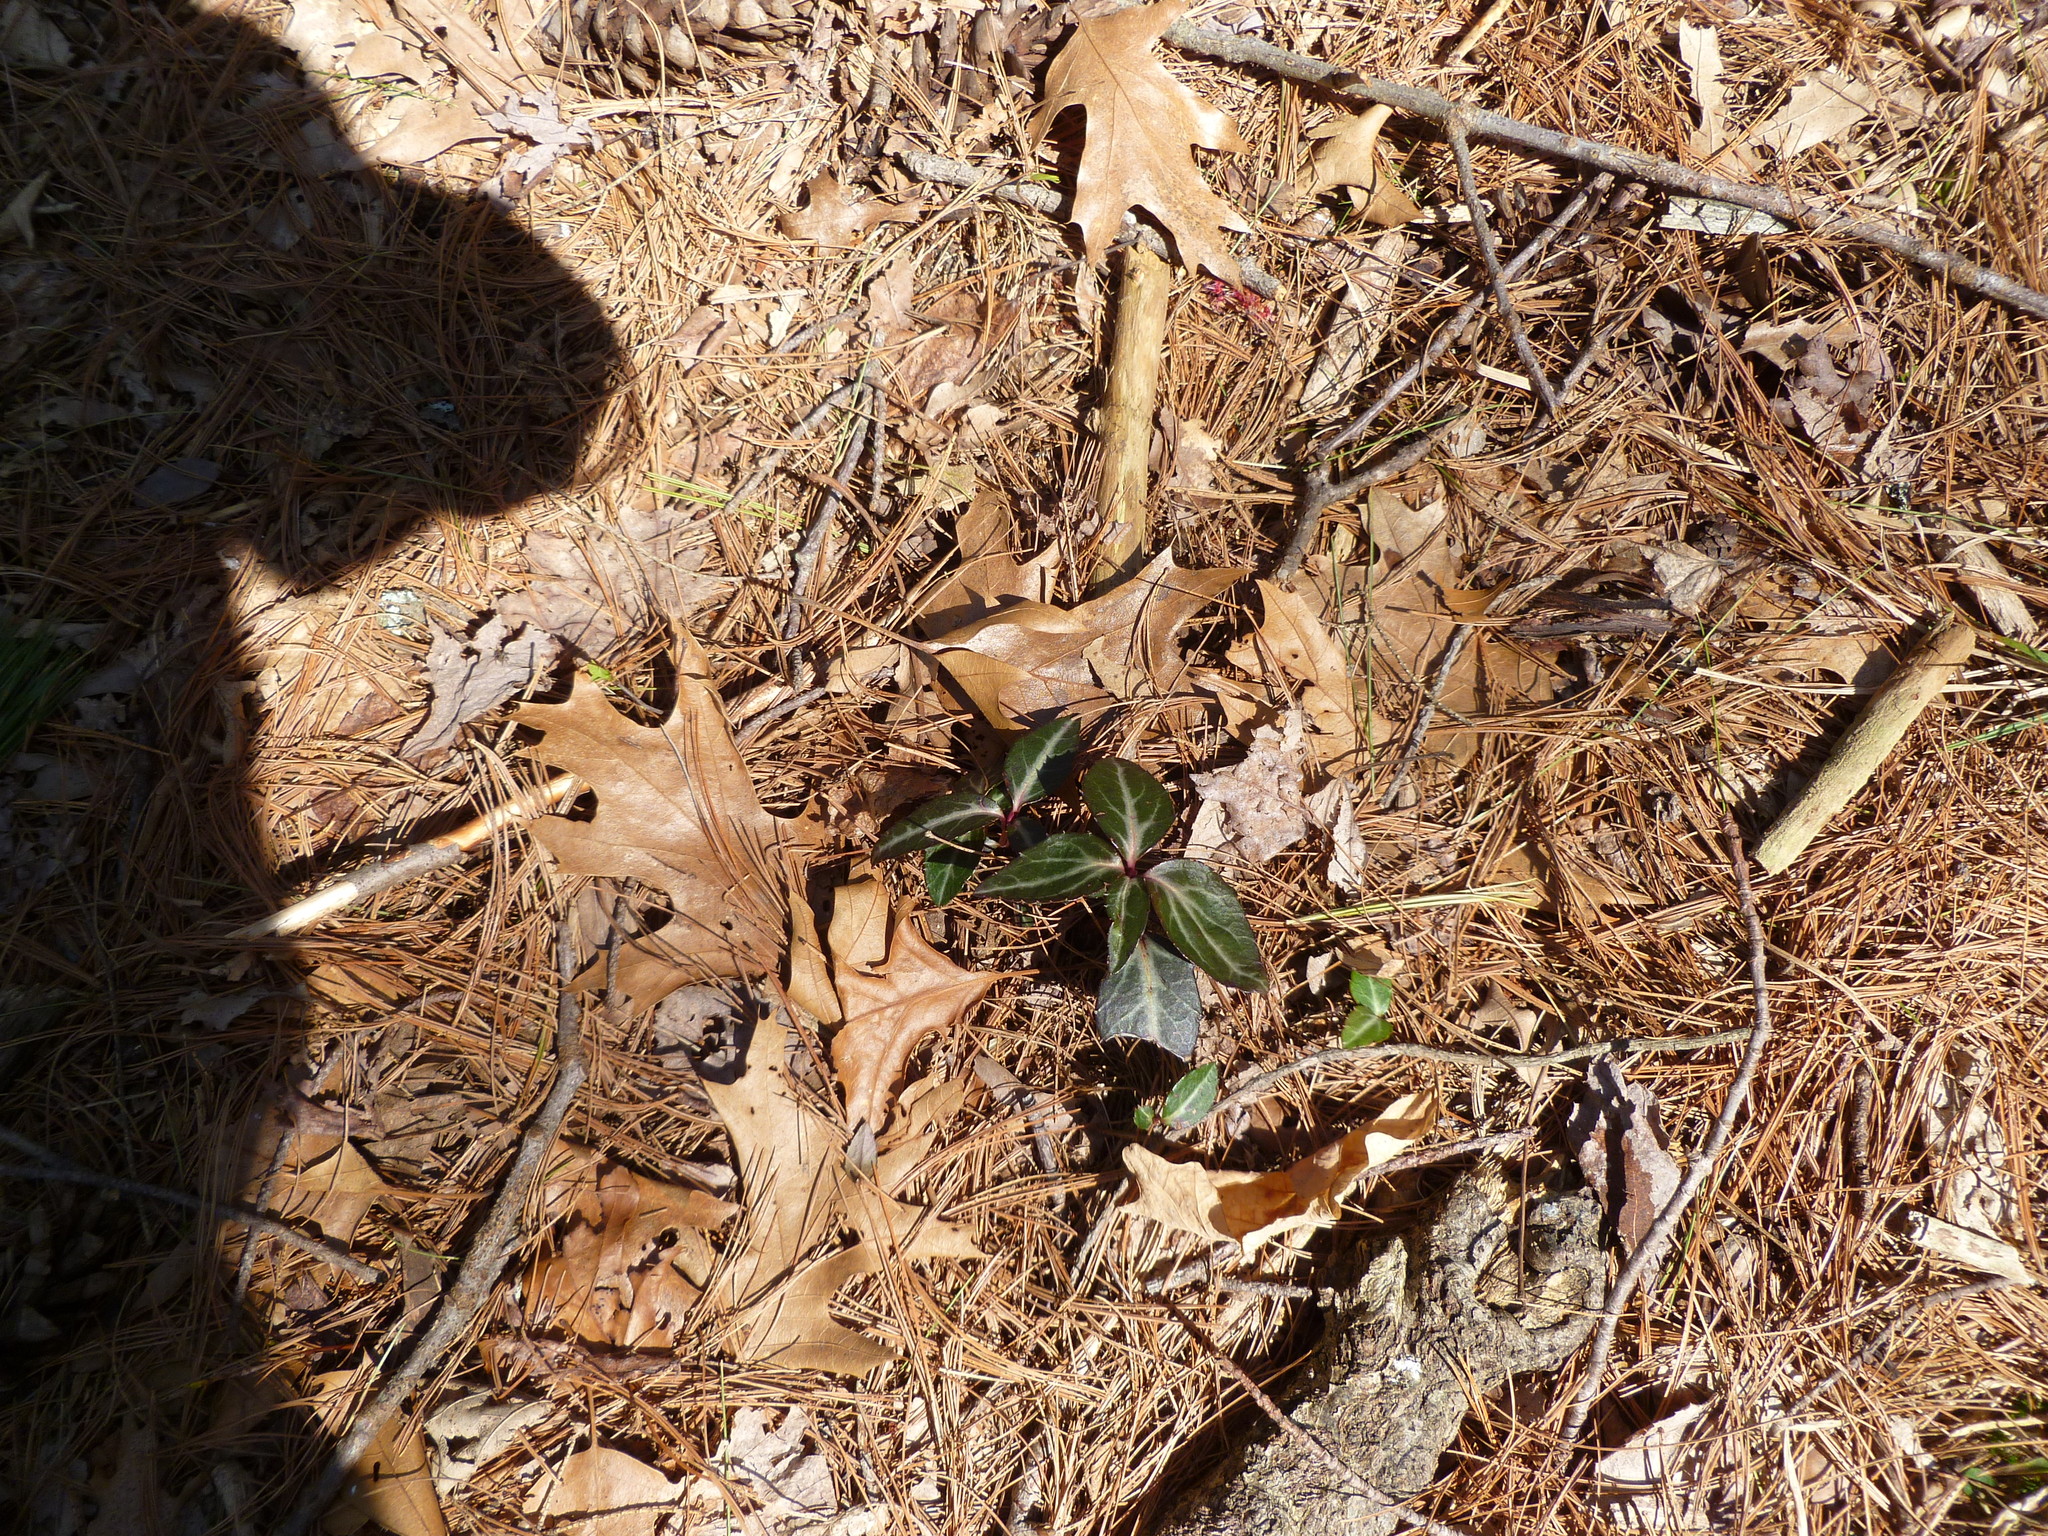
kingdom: Plantae
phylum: Tracheophyta
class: Magnoliopsida
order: Ericales
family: Ericaceae
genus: Chimaphila
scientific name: Chimaphila maculata
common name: Spotted pipsissewa
